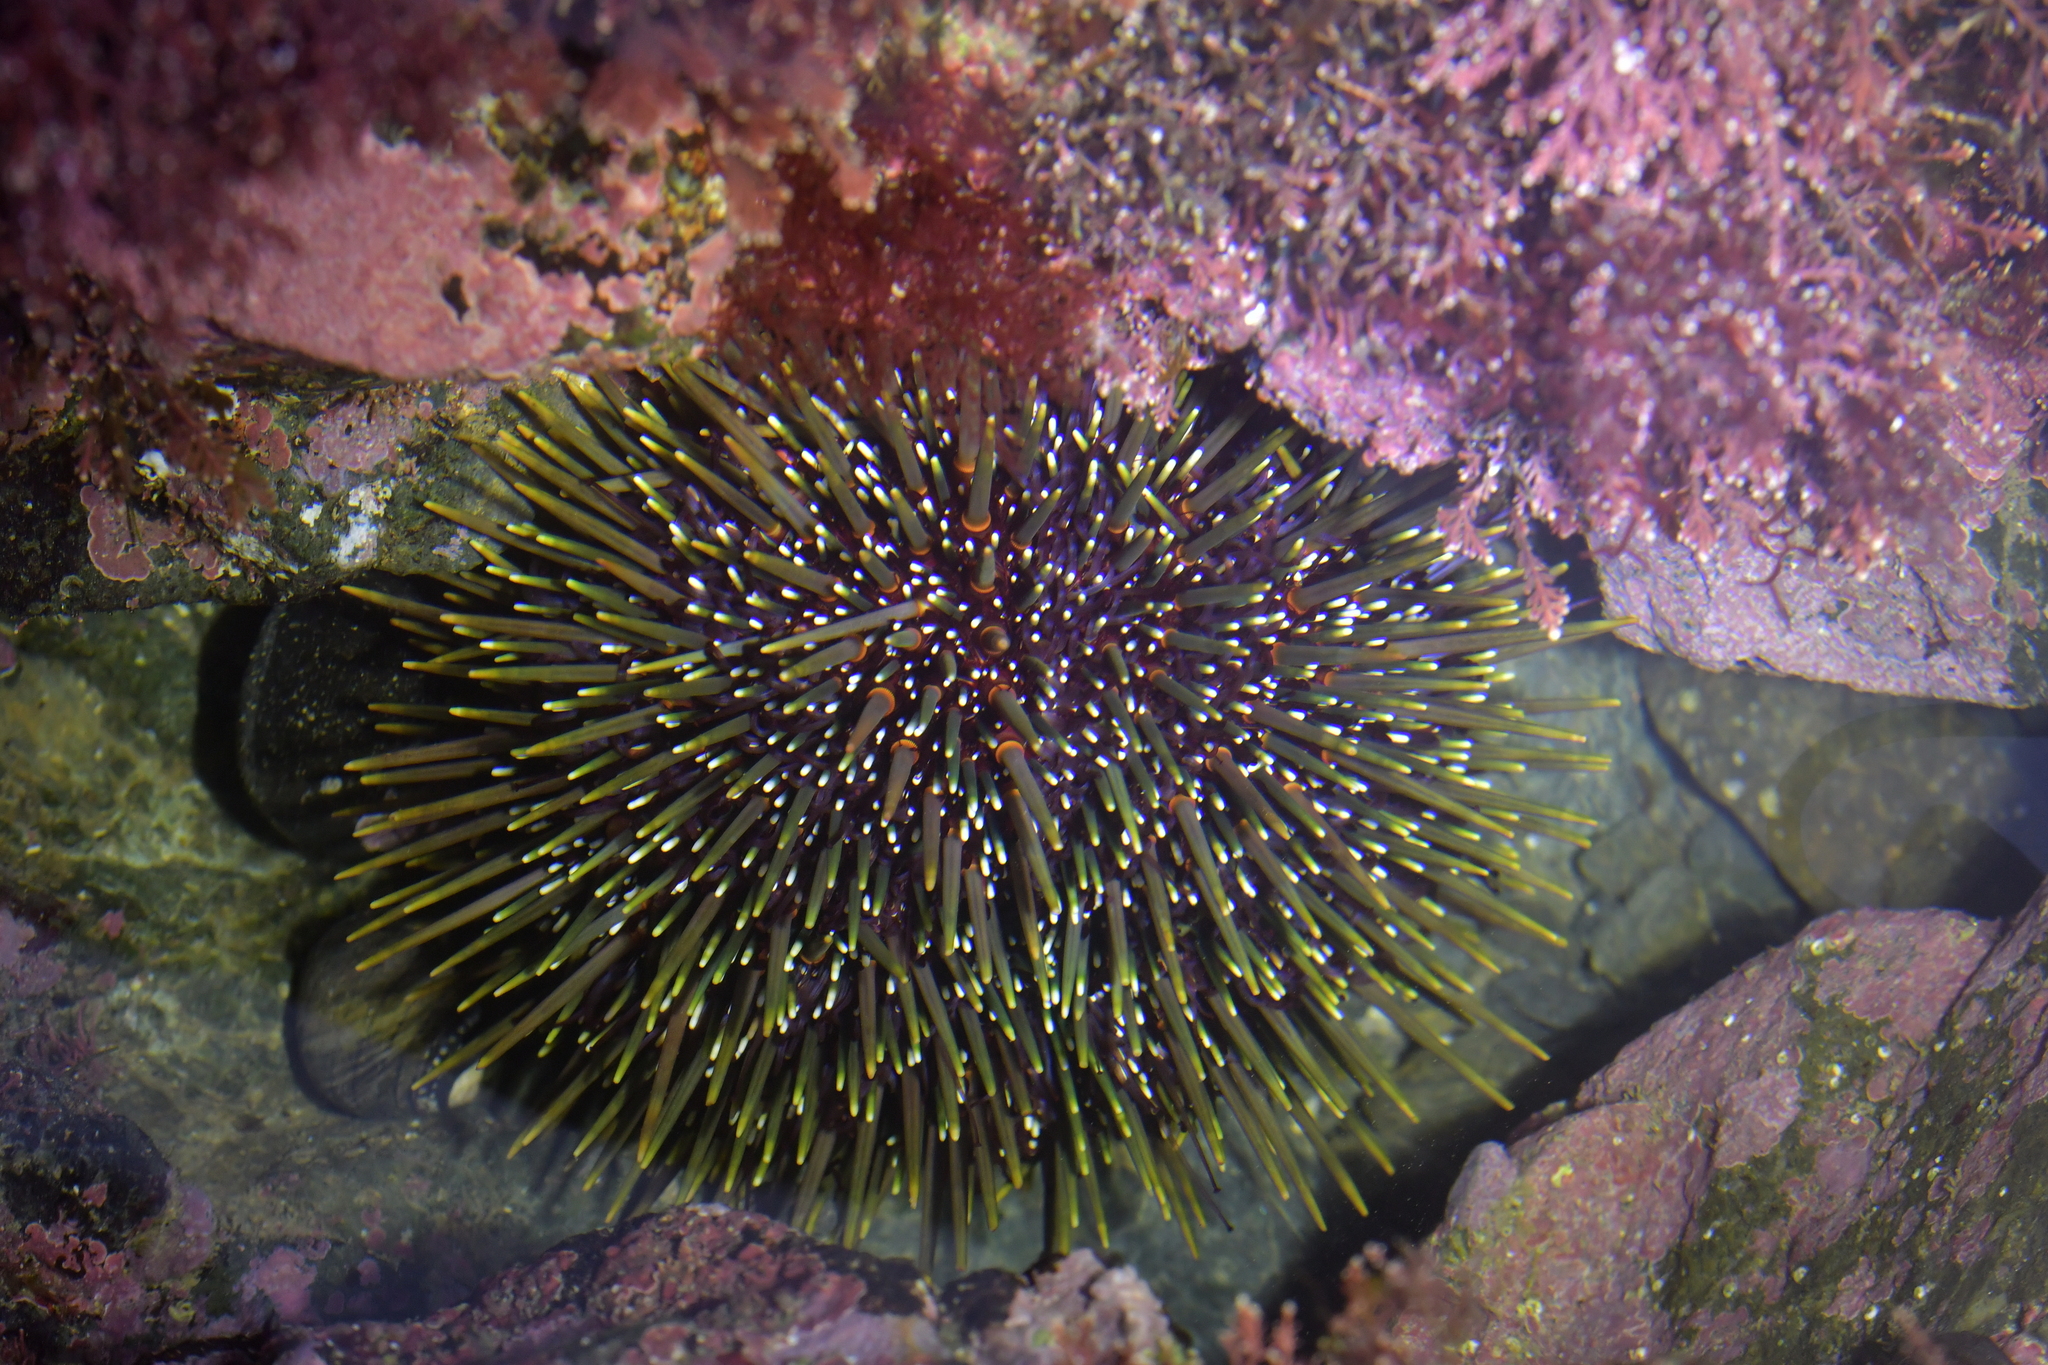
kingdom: Animalia
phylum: Echinodermata
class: Echinoidea
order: Camarodonta
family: Echinometridae
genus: Evechinus
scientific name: Evechinus chloroticus
